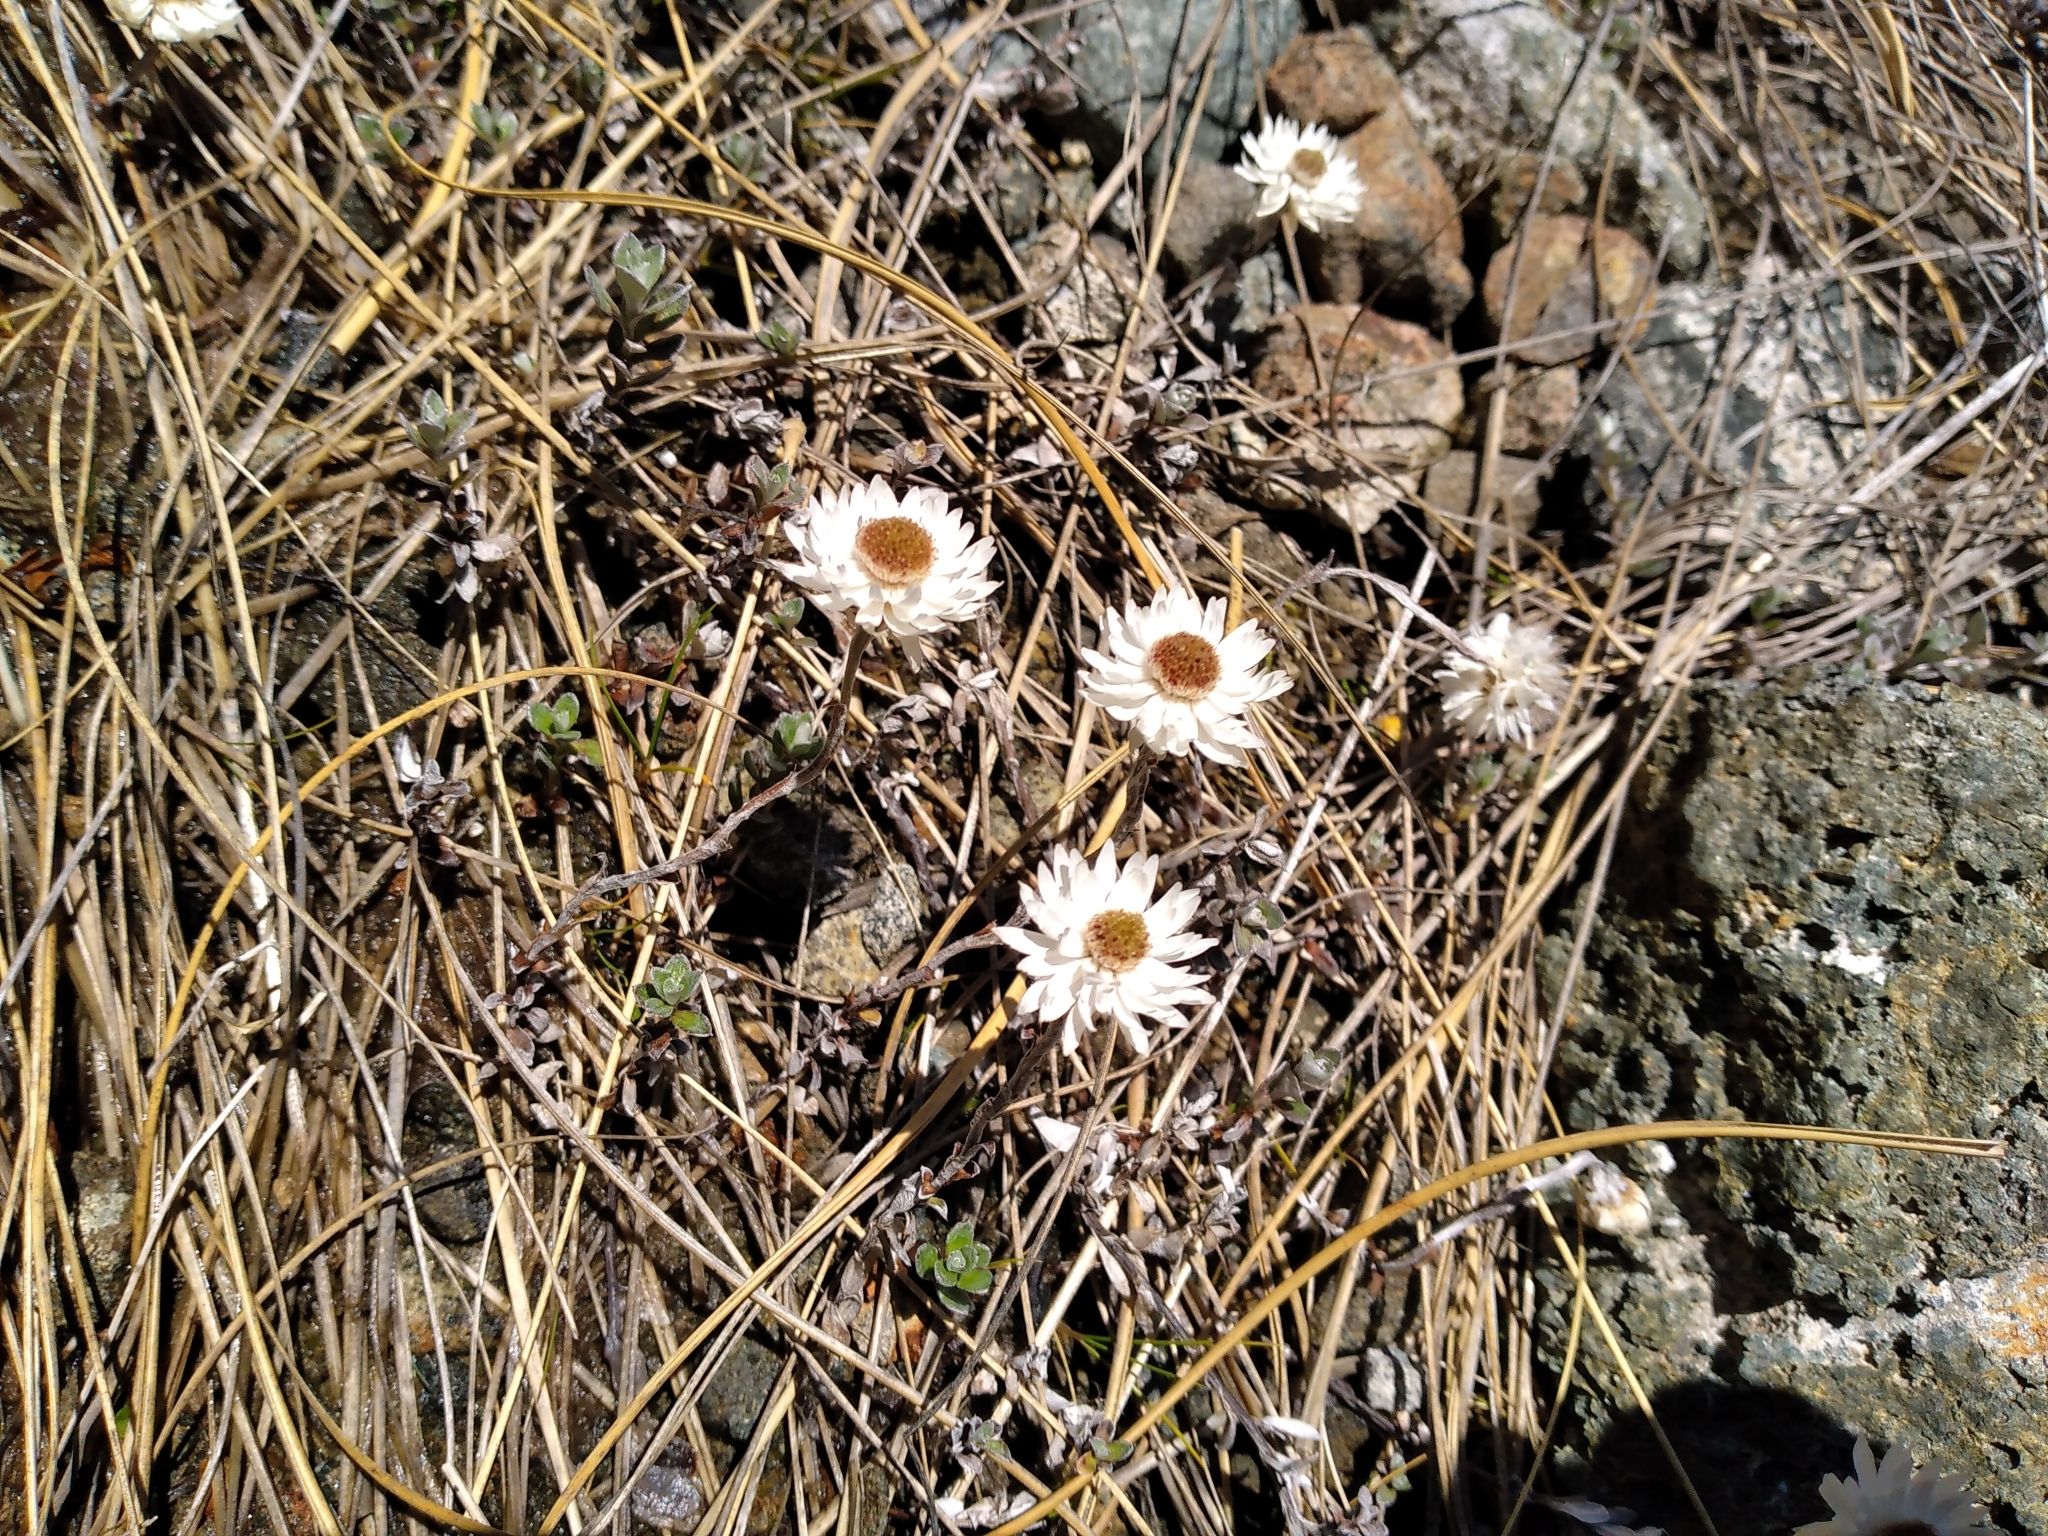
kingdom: Plantae
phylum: Tracheophyta
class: Magnoliopsida
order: Asterales
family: Asteraceae
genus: Anaphalioides
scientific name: Anaphalioides bellidioides
